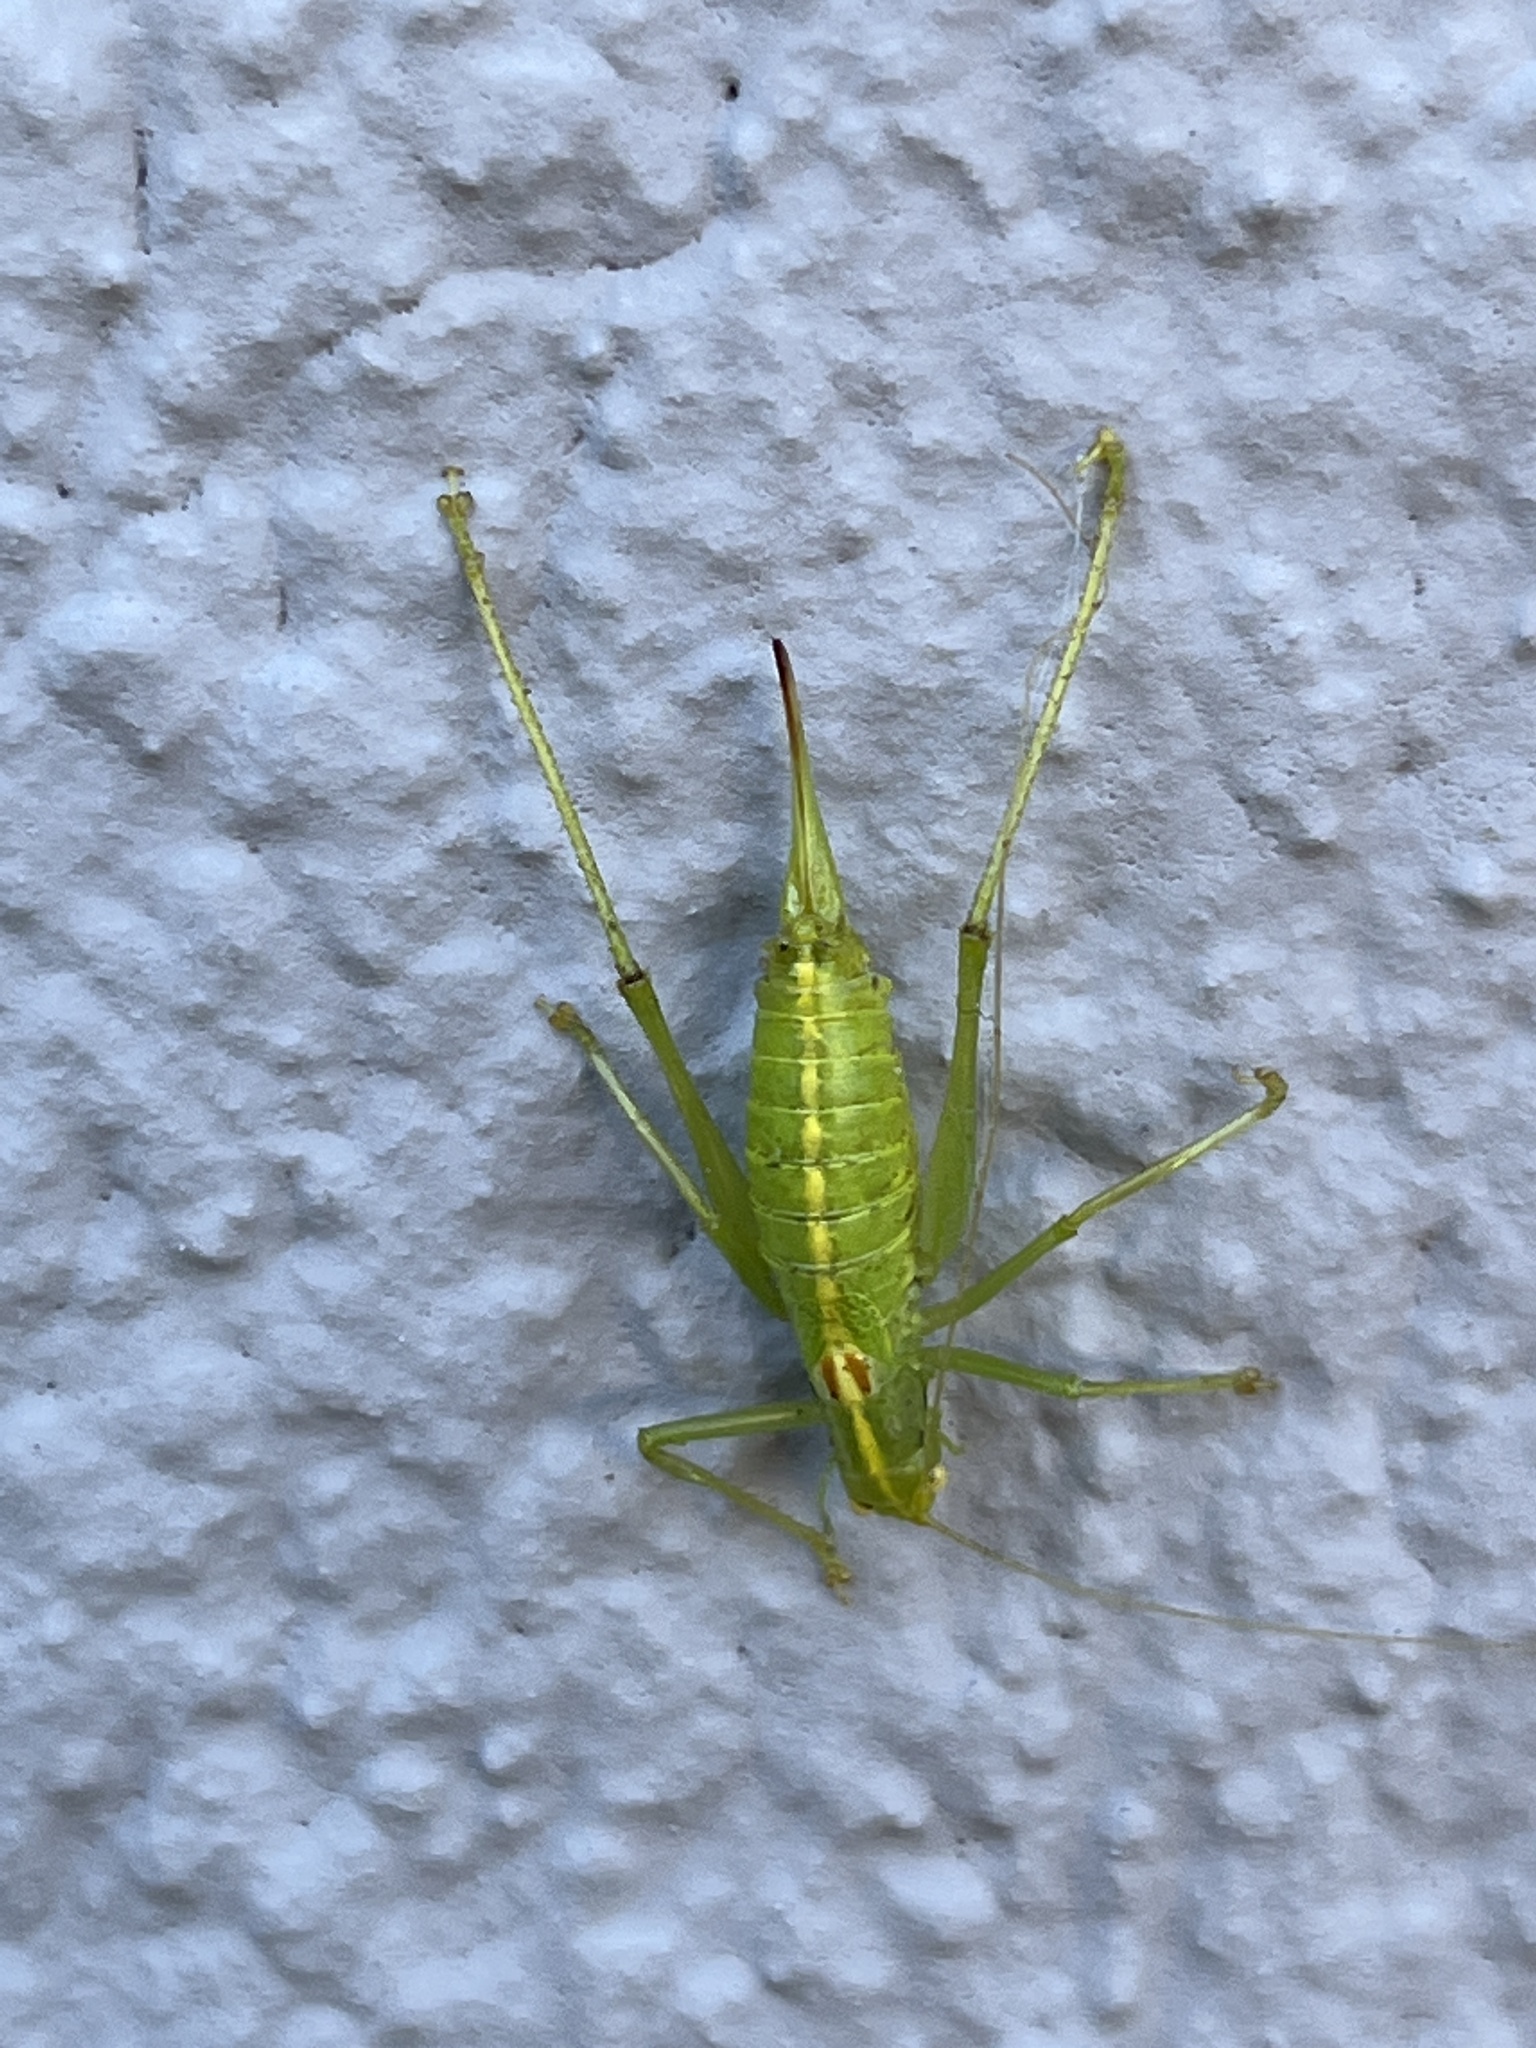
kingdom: Animalia
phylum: Arthropoda
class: Insecta
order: Orthoptera
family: Tettigoniidae
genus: Meconema
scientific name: Meconema meridionale
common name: Southern oak bush-cricket
